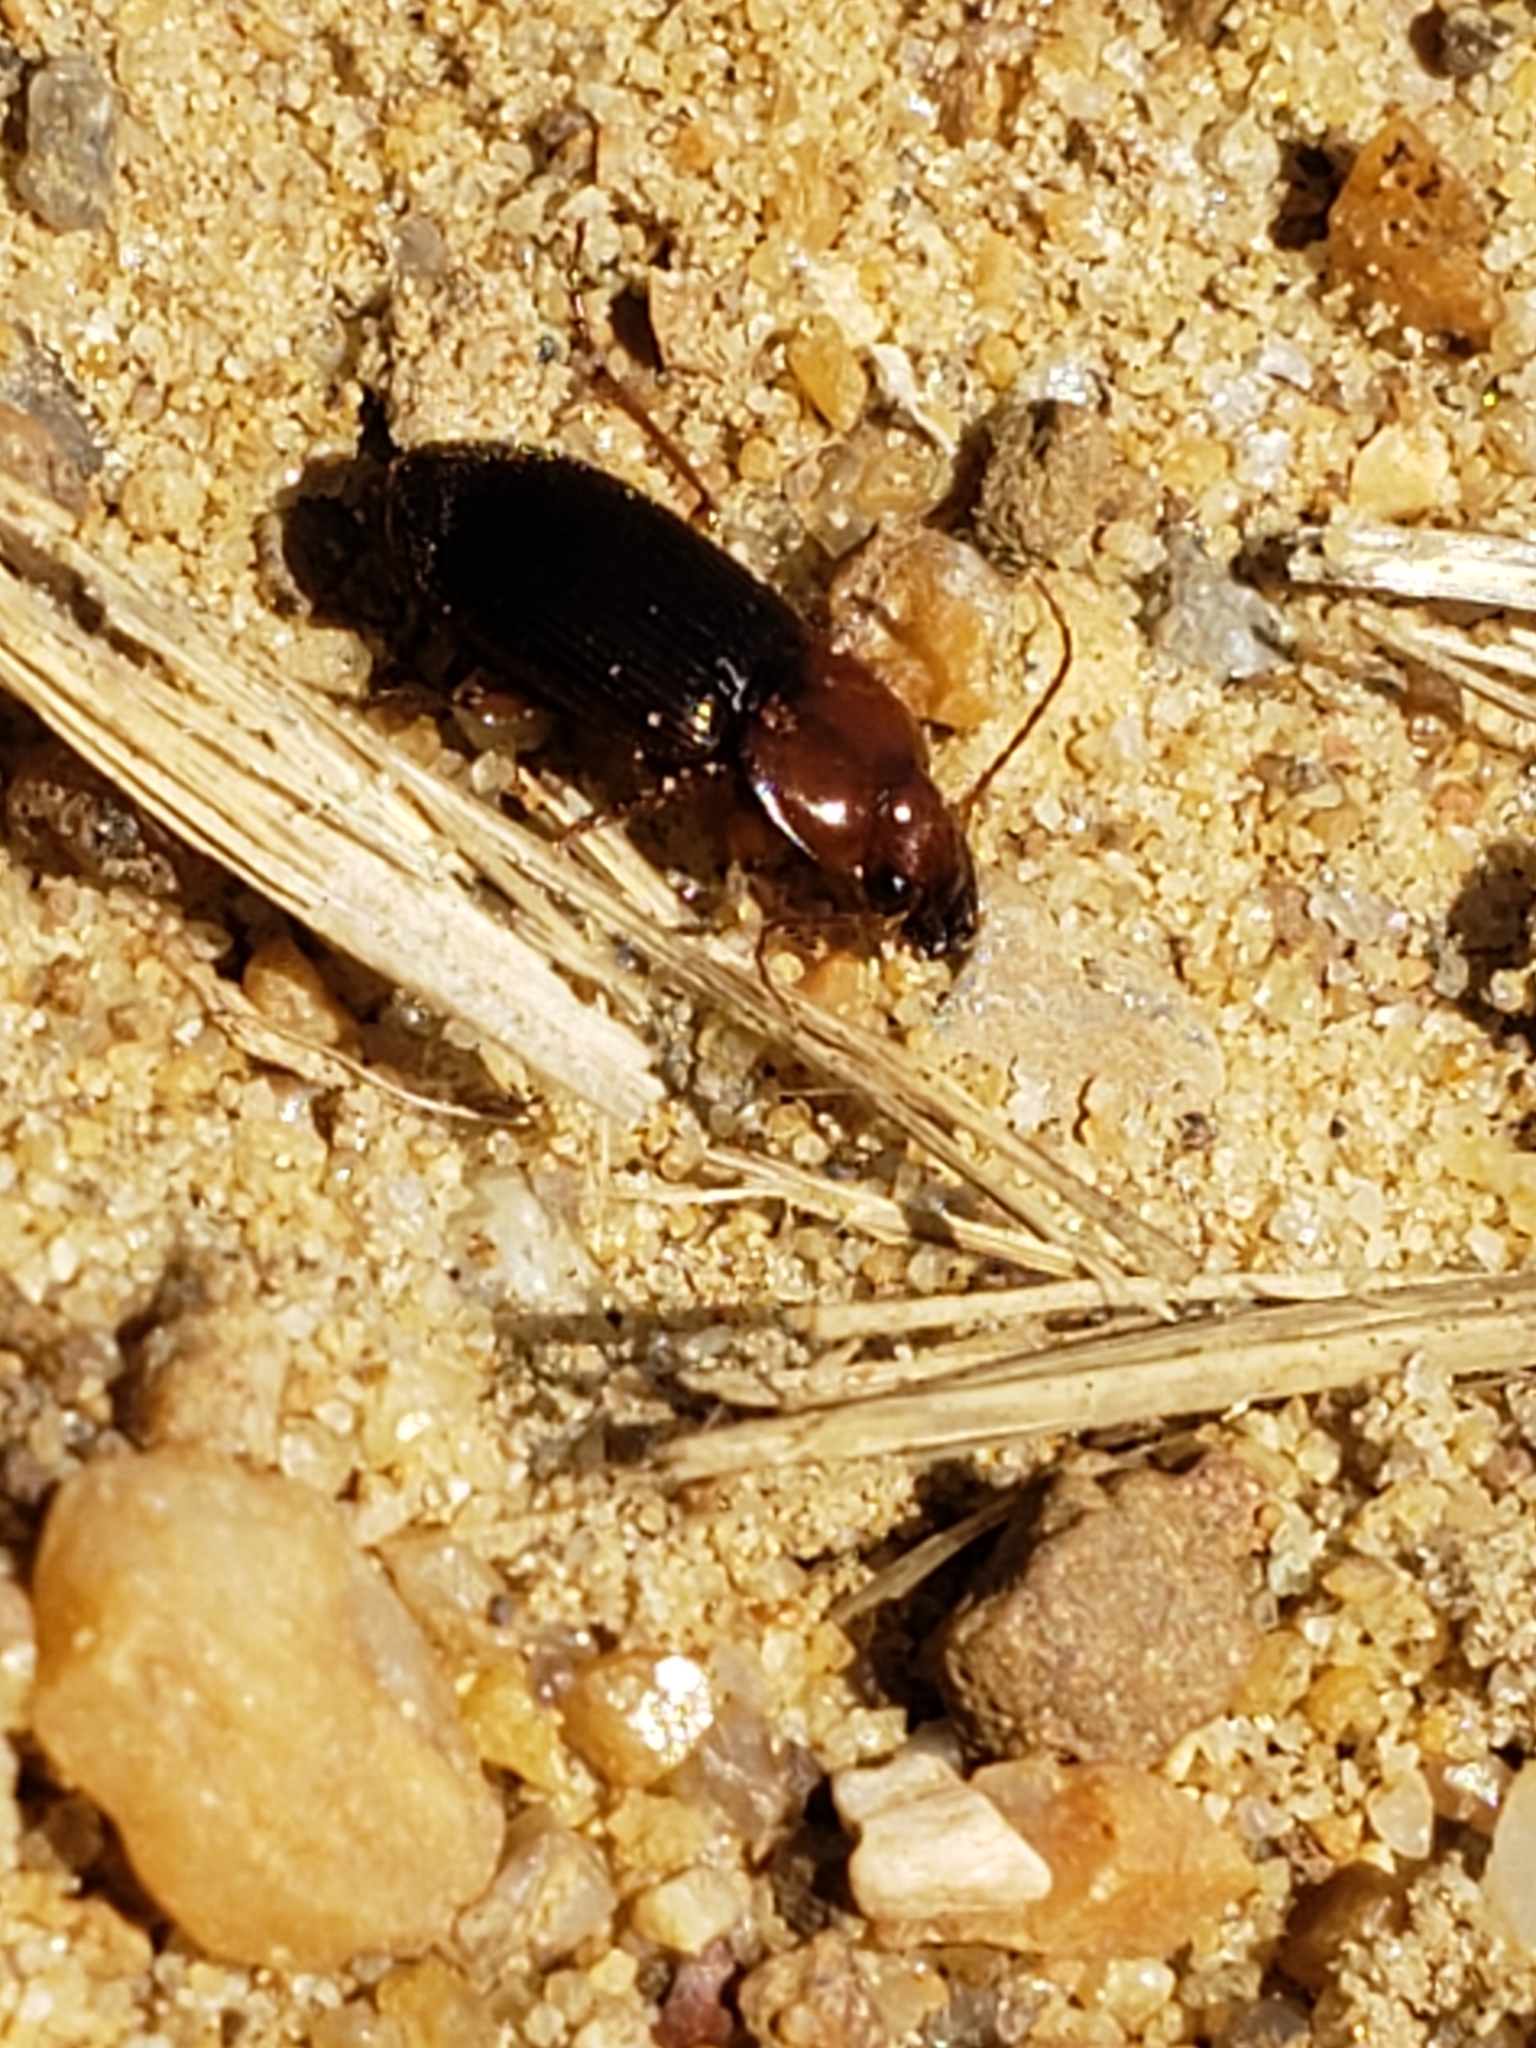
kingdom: Animalia
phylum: Arthropoda
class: Insecta
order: Coleoptera
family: Carabidae
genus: Trichotichnus
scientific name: Trichotichnus vulpeculus
